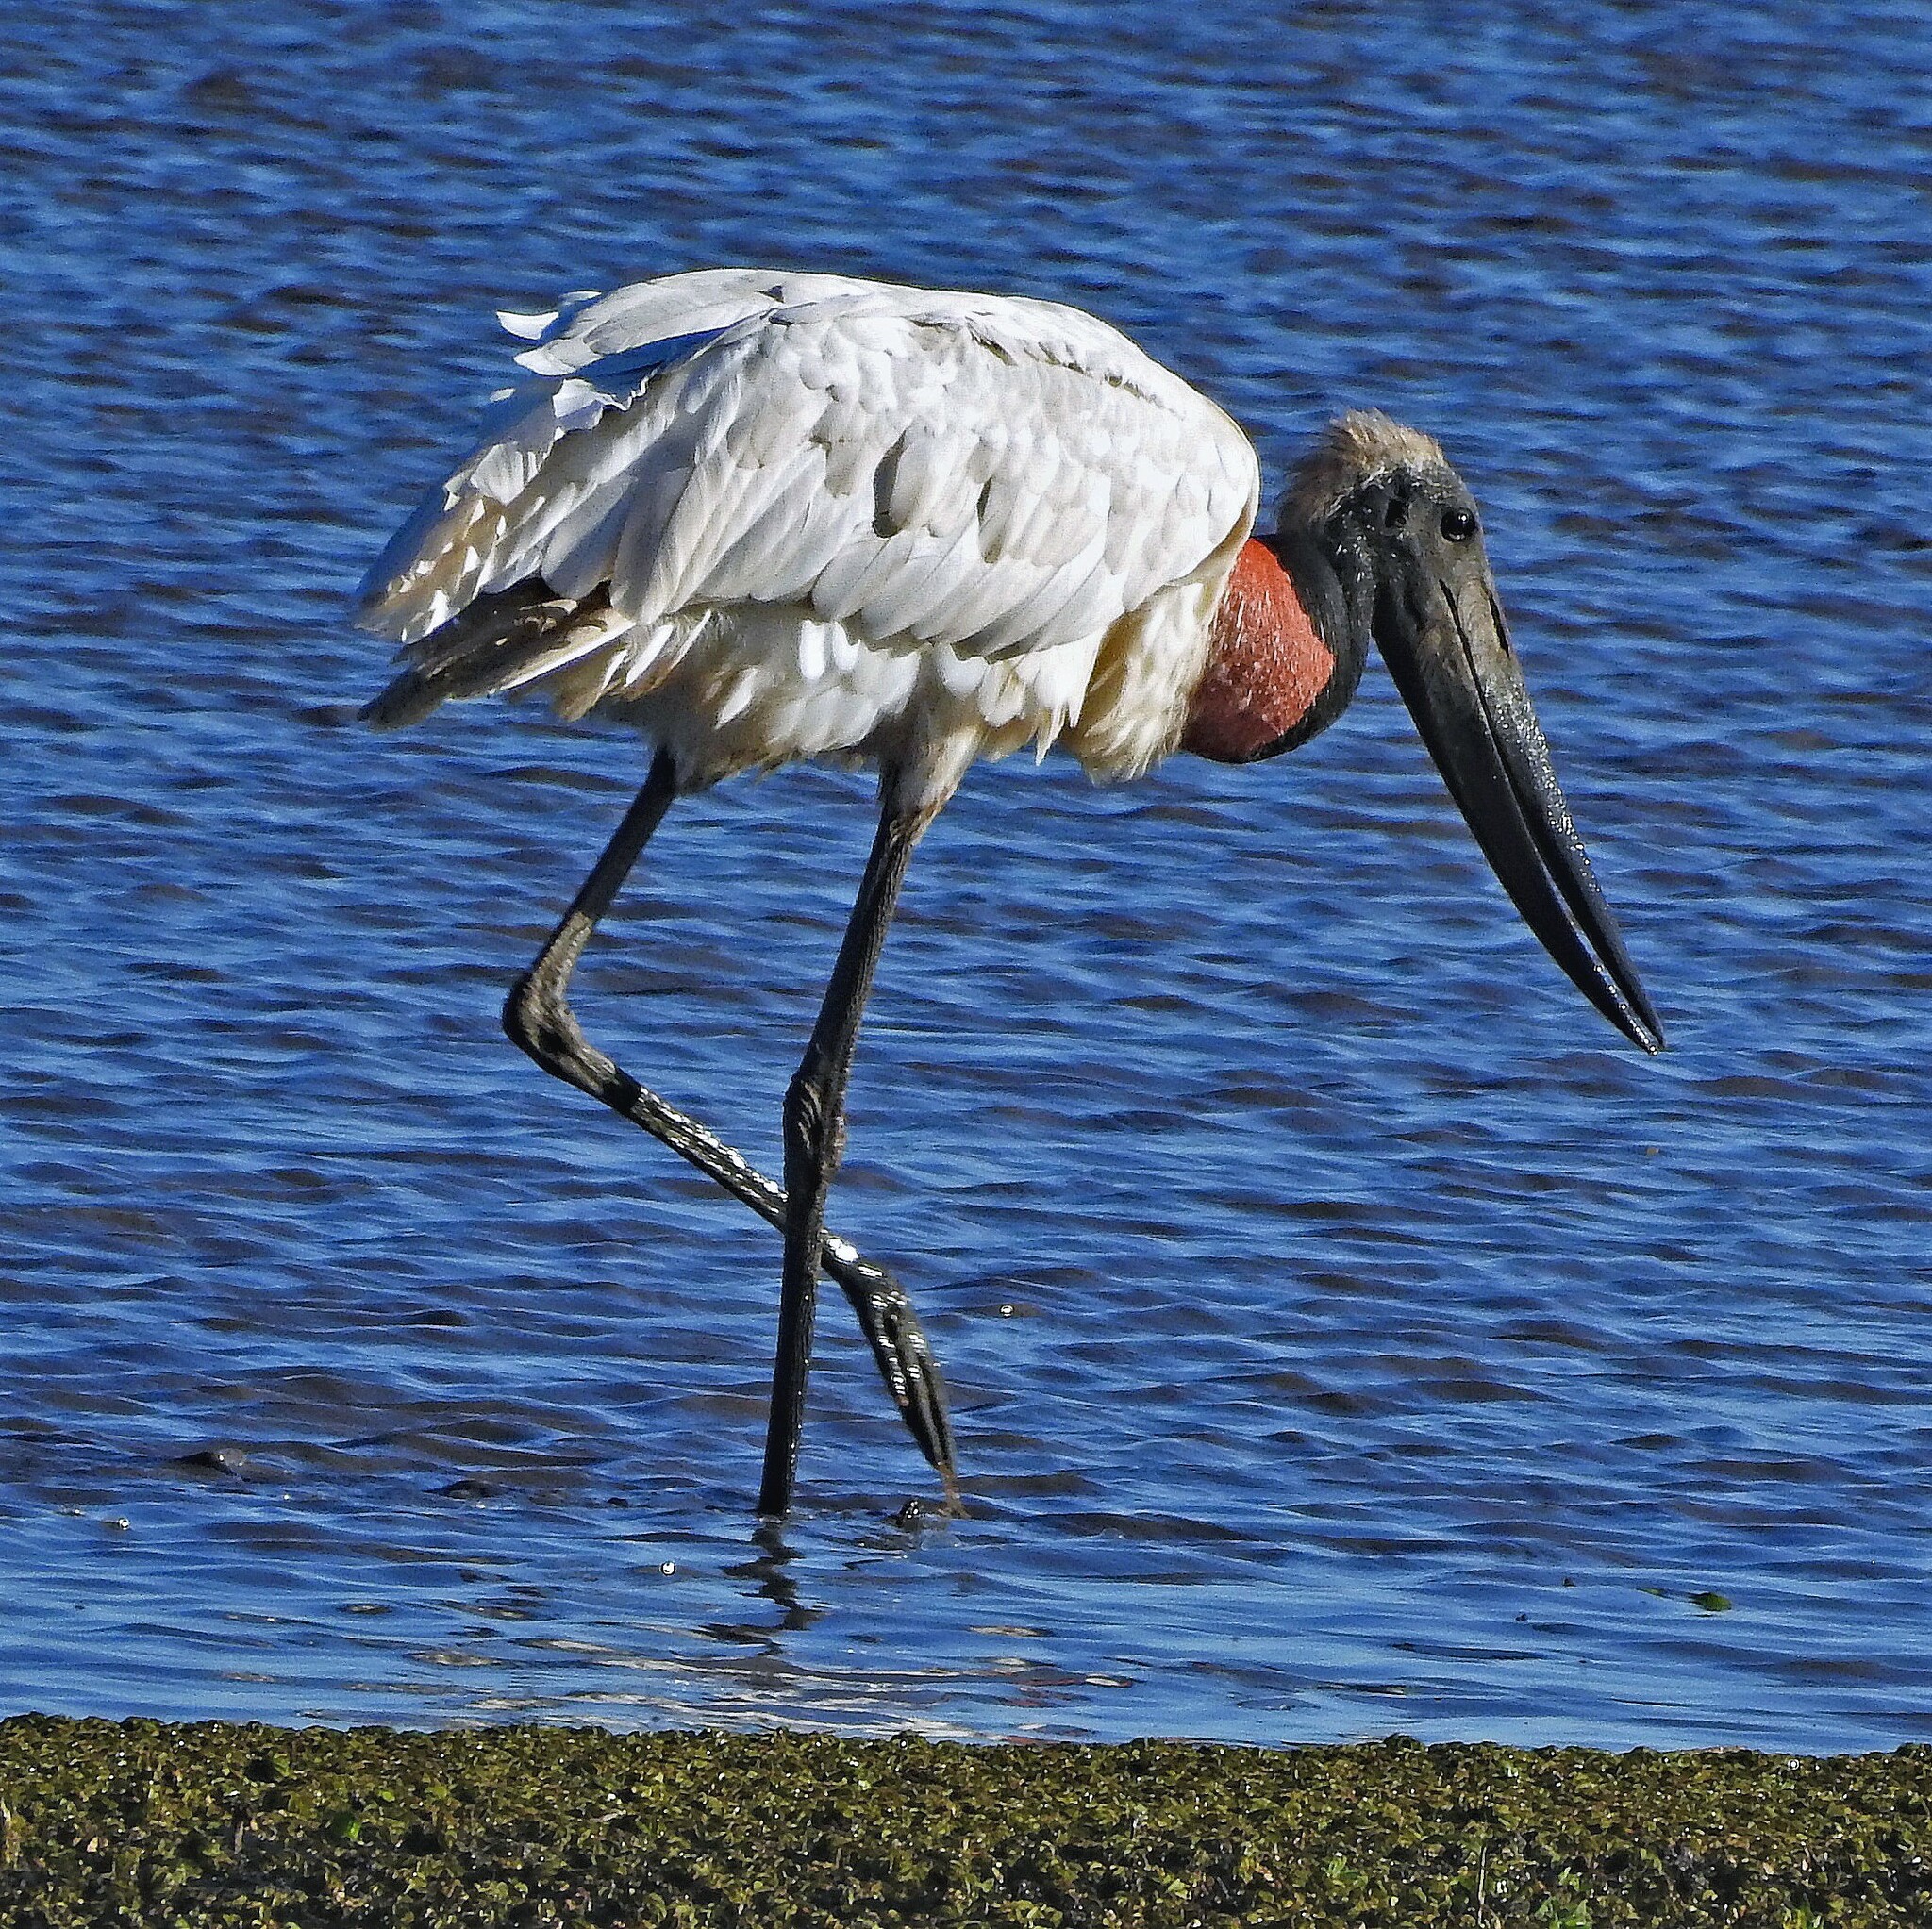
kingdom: Animalia
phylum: Chordata
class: Aves
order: Ciconiiformes
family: Ciconiidae
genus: Jabiru
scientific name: Jabiru mycteria
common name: Jabiru
